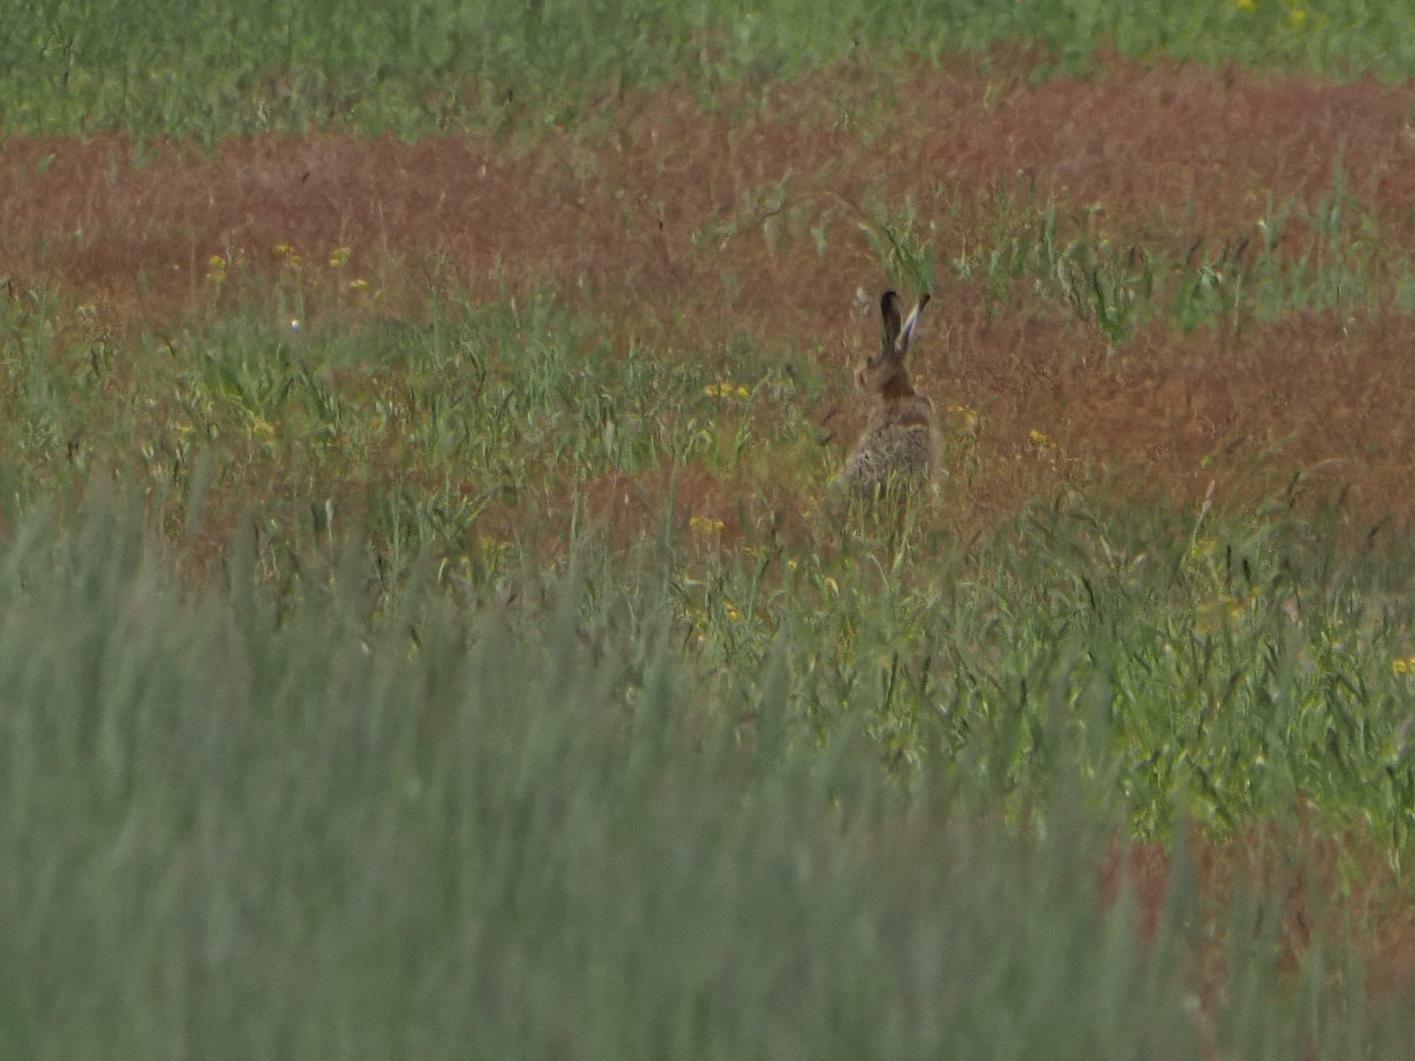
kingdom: Animalia
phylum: Chordata
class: Mammalia
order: Lagomorpha
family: Leporidae
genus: Lepus
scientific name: Lepus europaeus
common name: European hare
